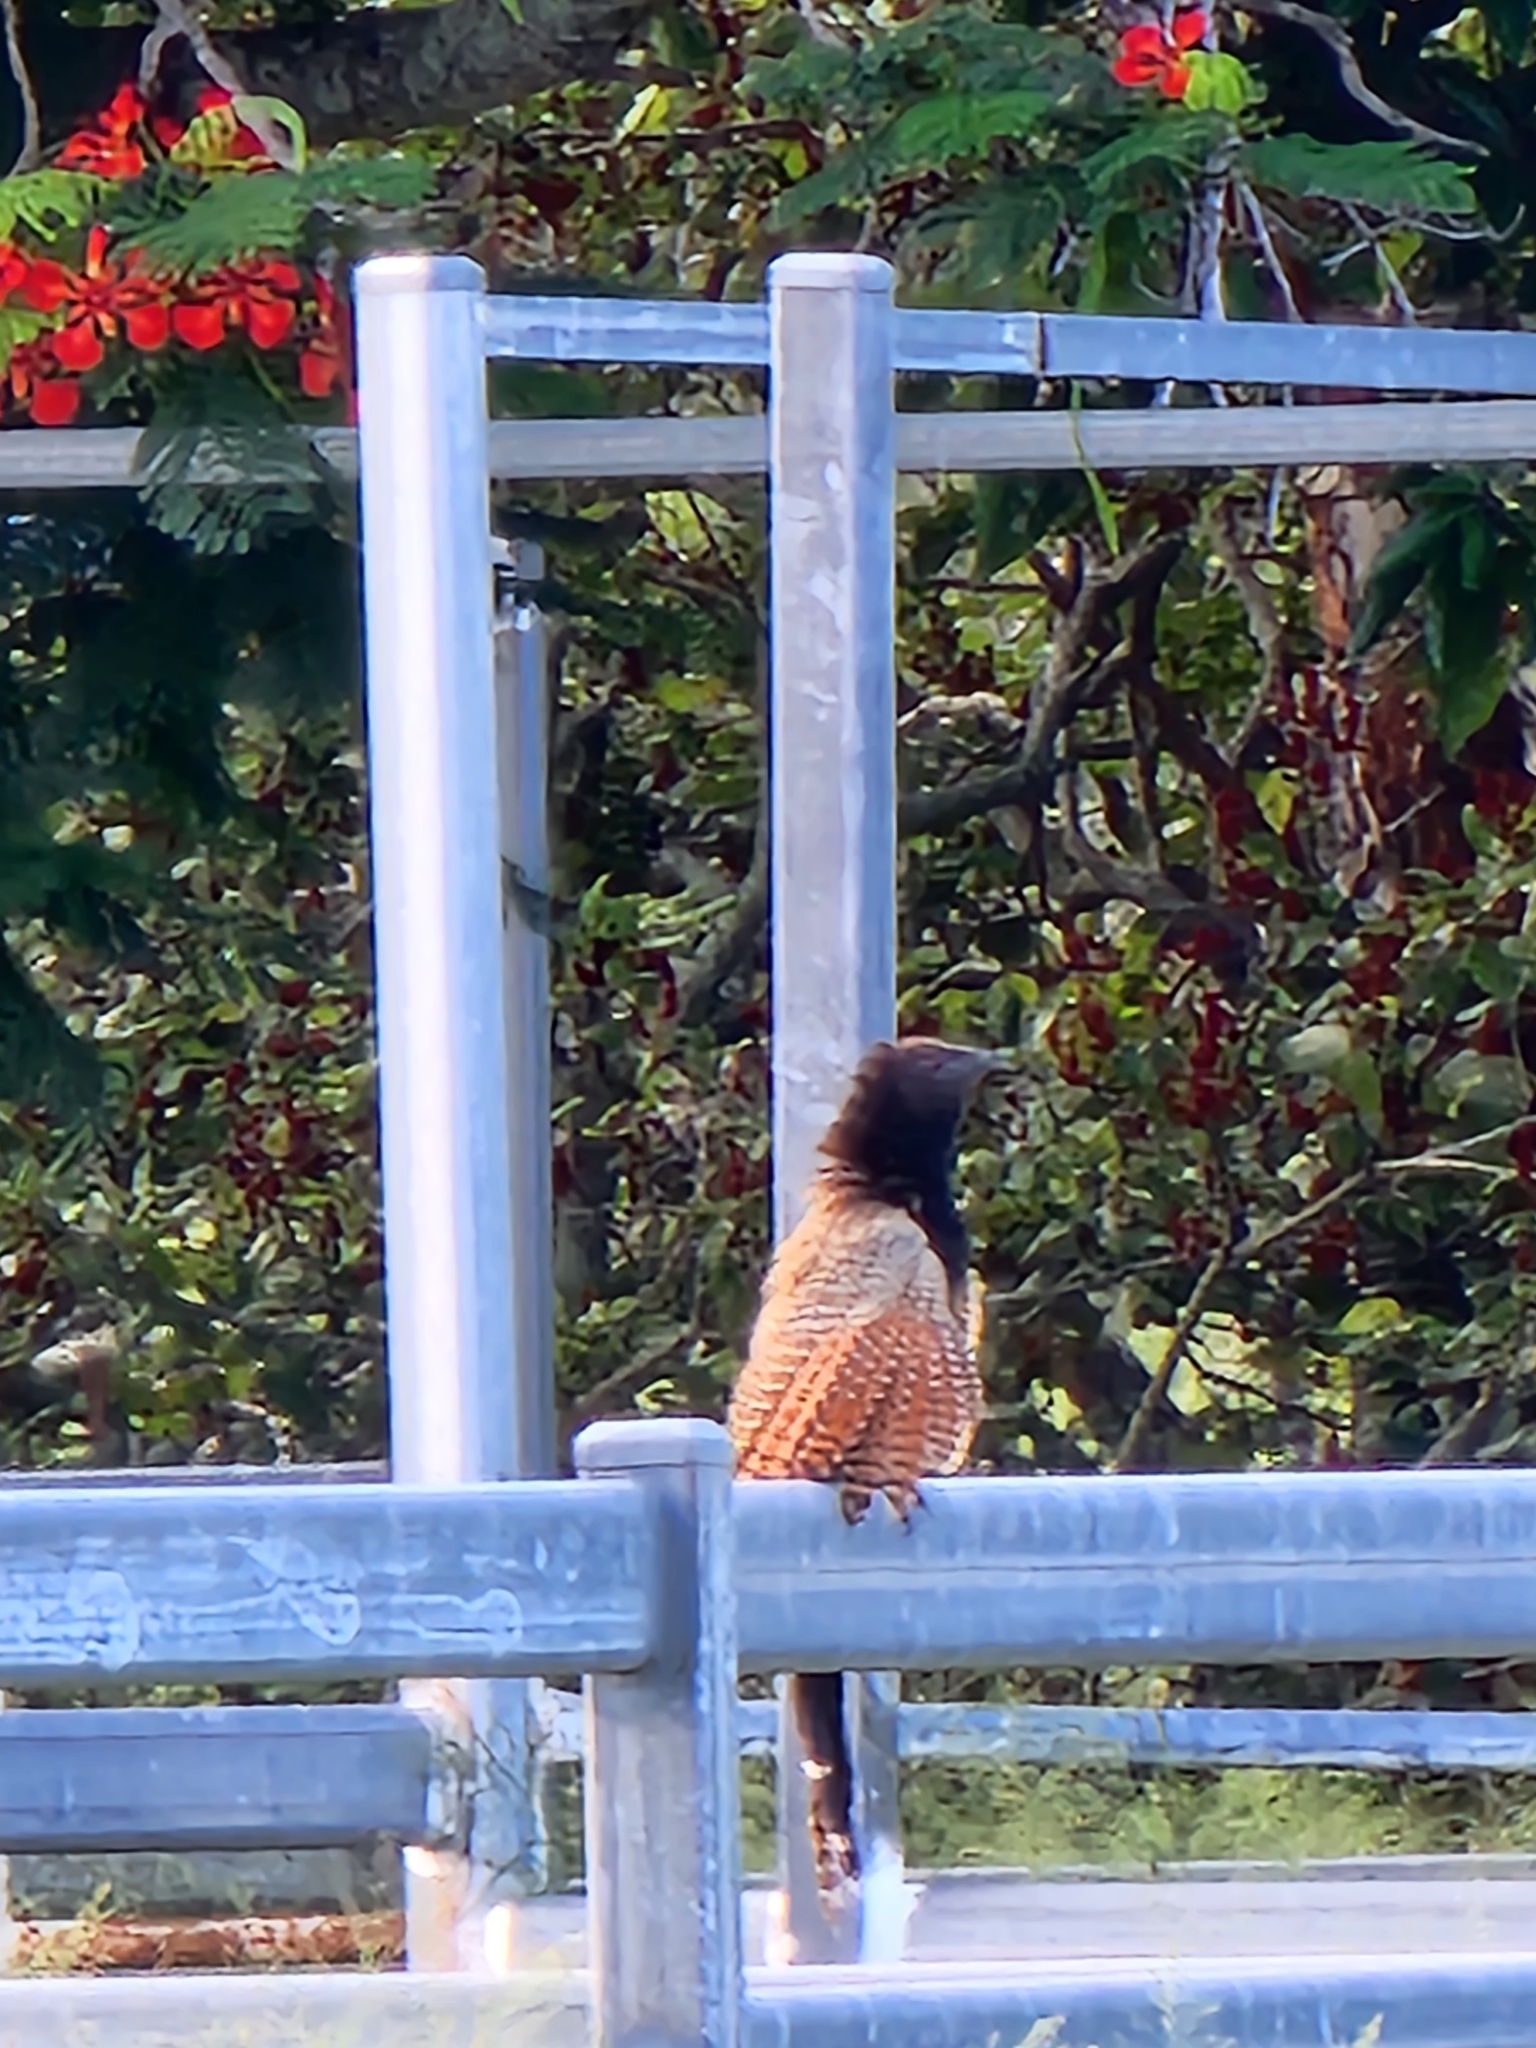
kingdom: Animalia
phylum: Chordata
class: Aves
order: Cuculiformes
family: Cuculidae
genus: Centropus
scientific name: Centropus phasianinus
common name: Pheasant coucal
